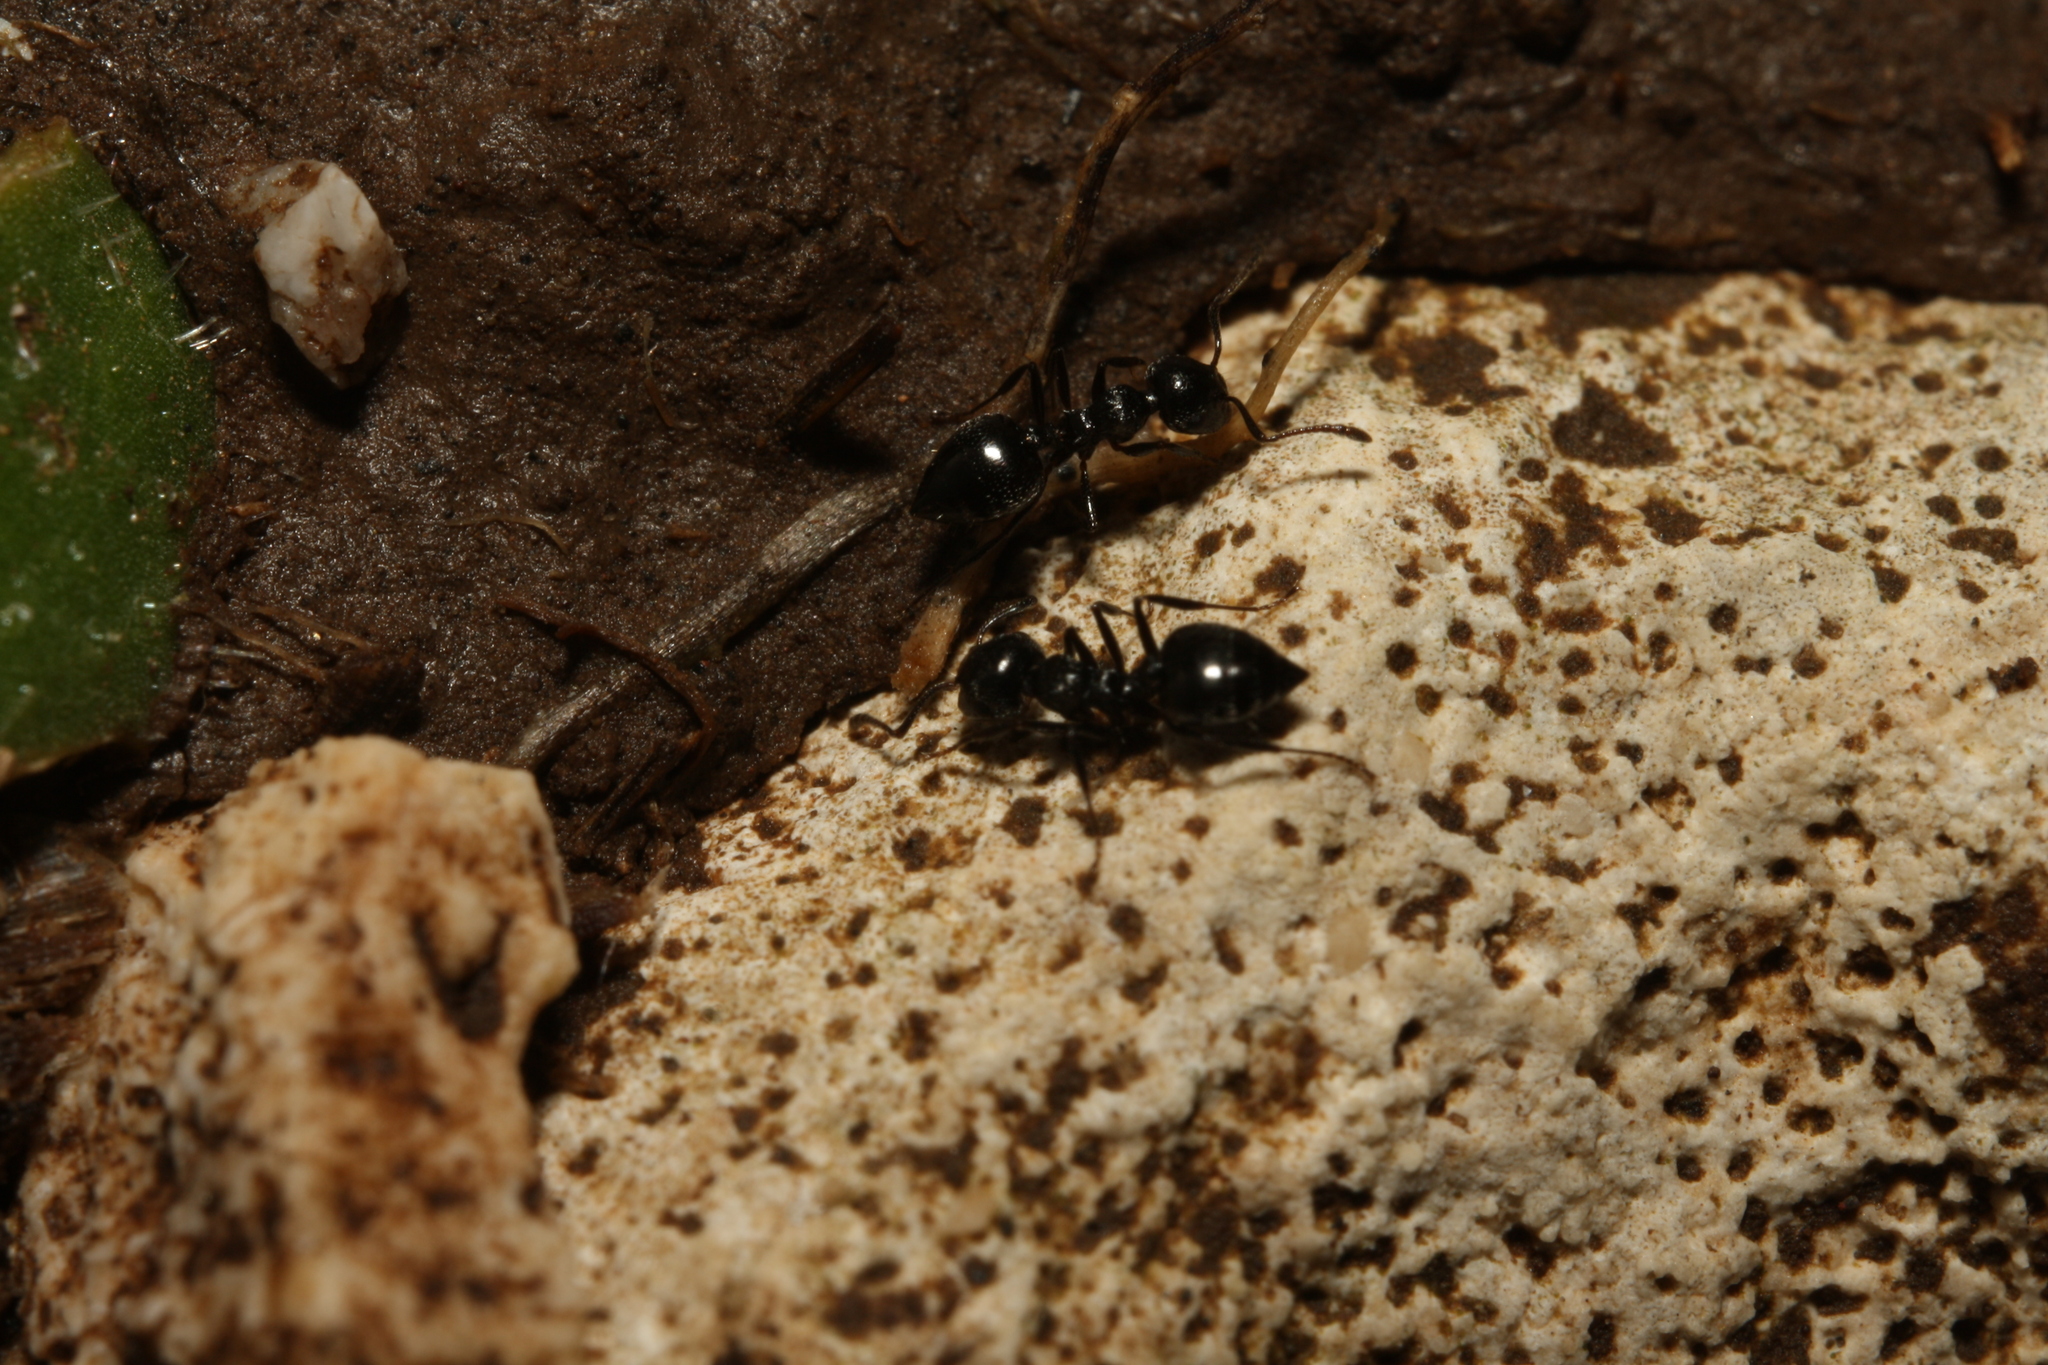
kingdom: Animalia
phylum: Arthropoda
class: Insecta
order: Hymenoptera
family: Formicidae
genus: Crematogaster
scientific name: Crematogaster laestrygon
